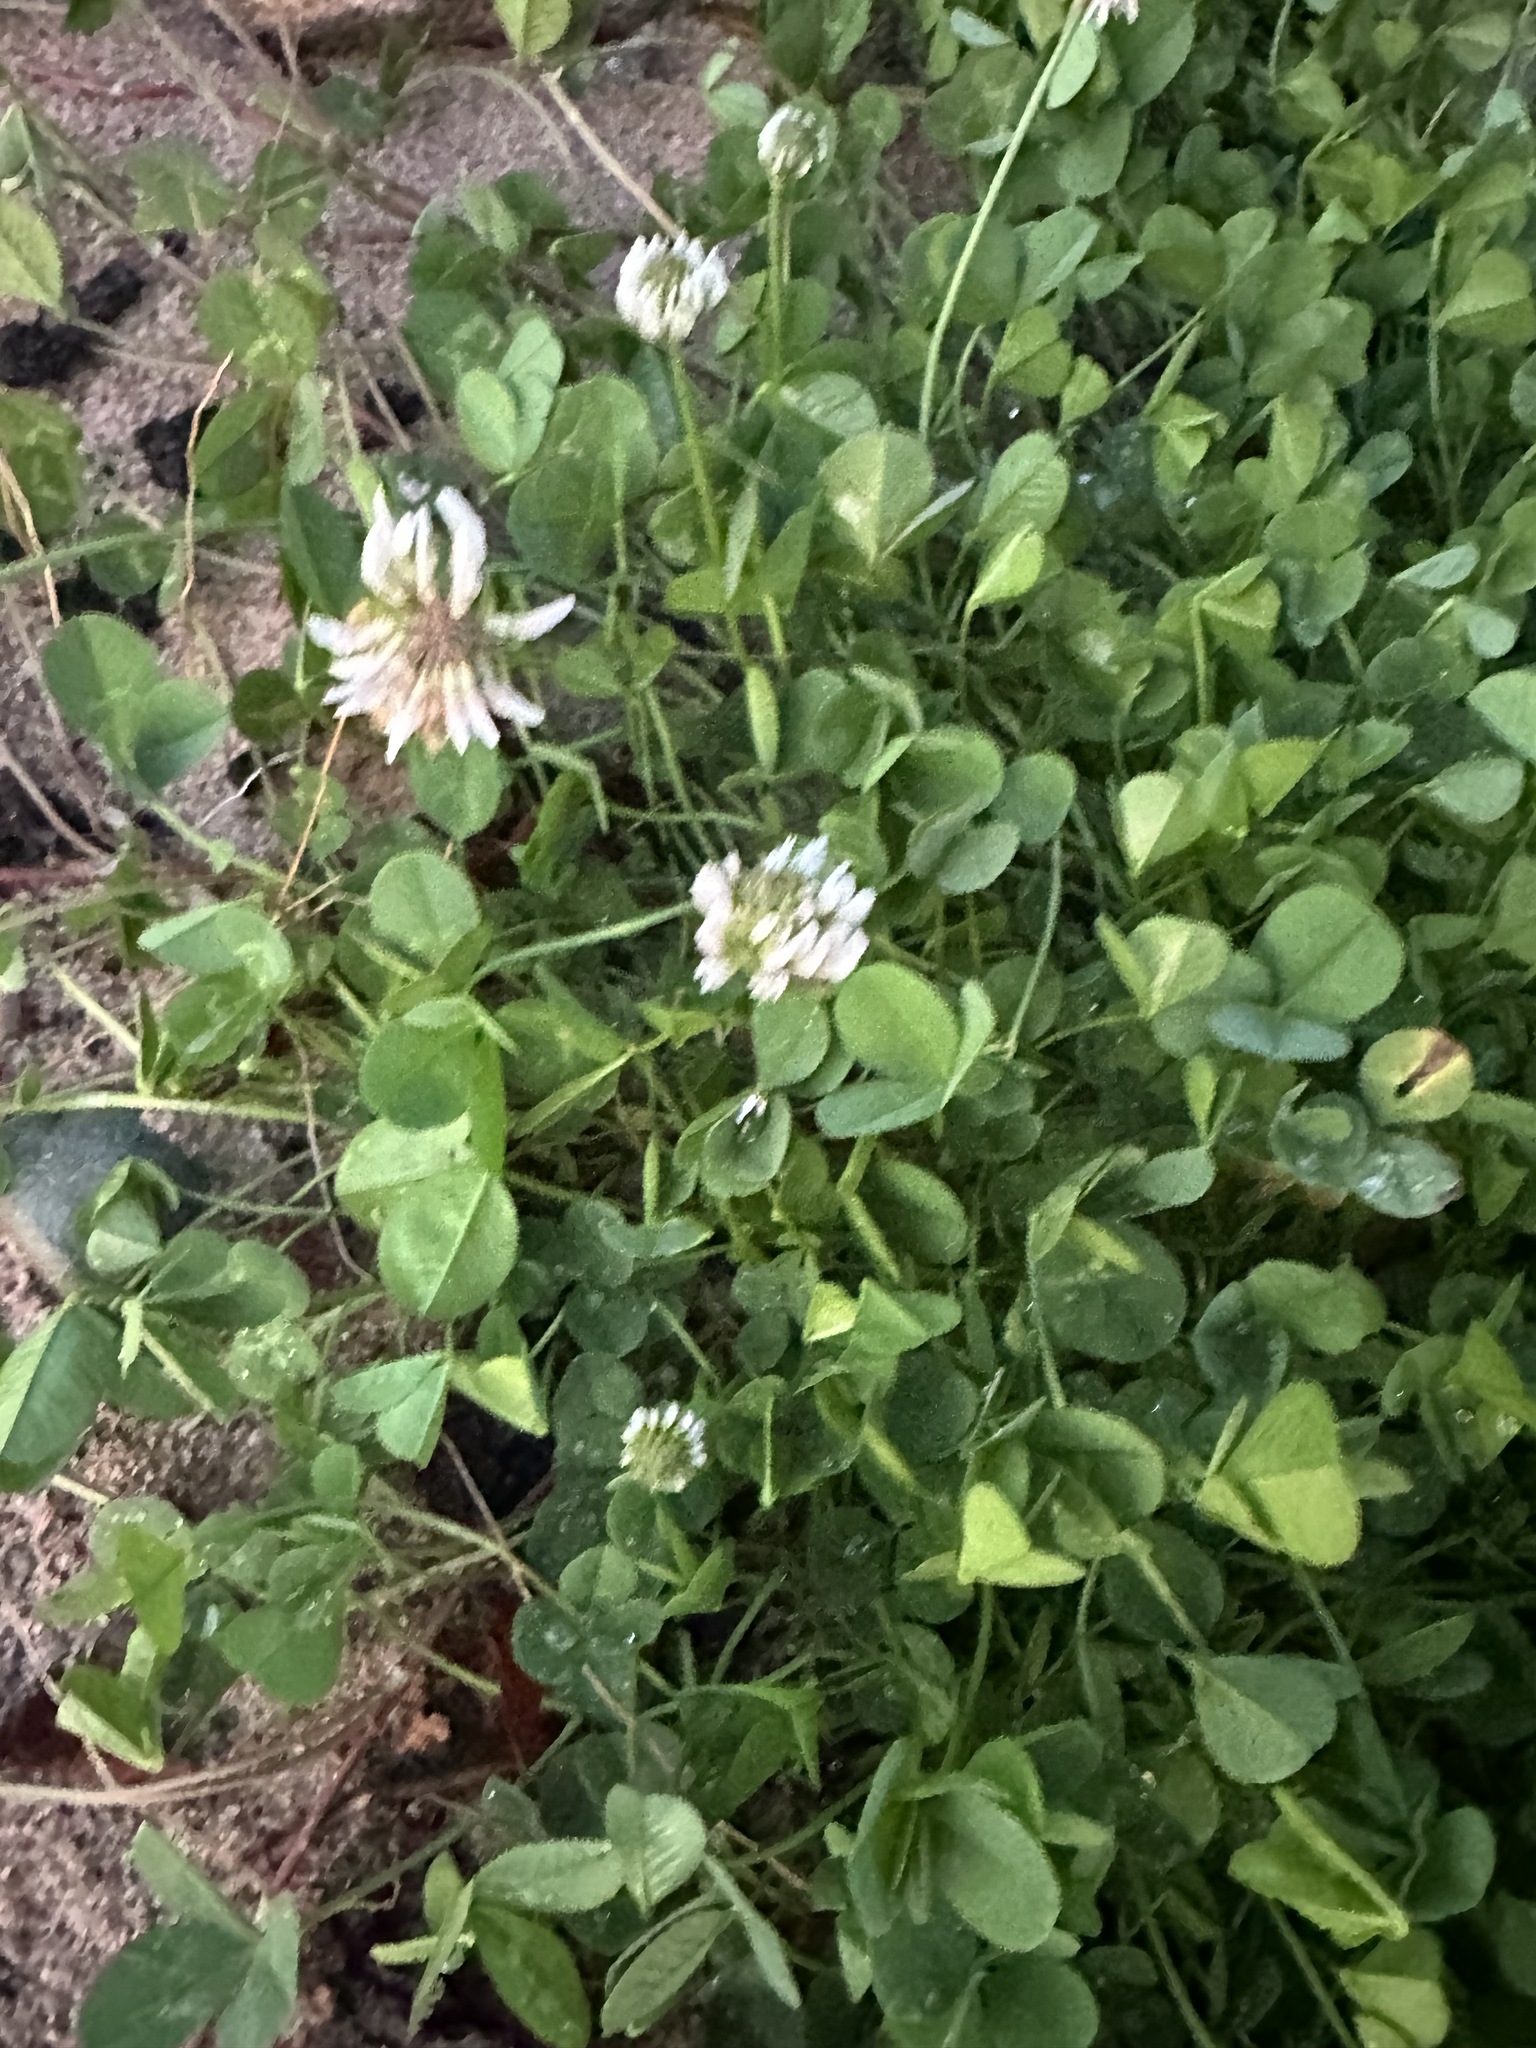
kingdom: Plantae
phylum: Tracheophyta
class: Magnoliopsida
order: Fabales
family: Fabaceae
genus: Trifolium
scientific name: Trifolium repens
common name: White clover
